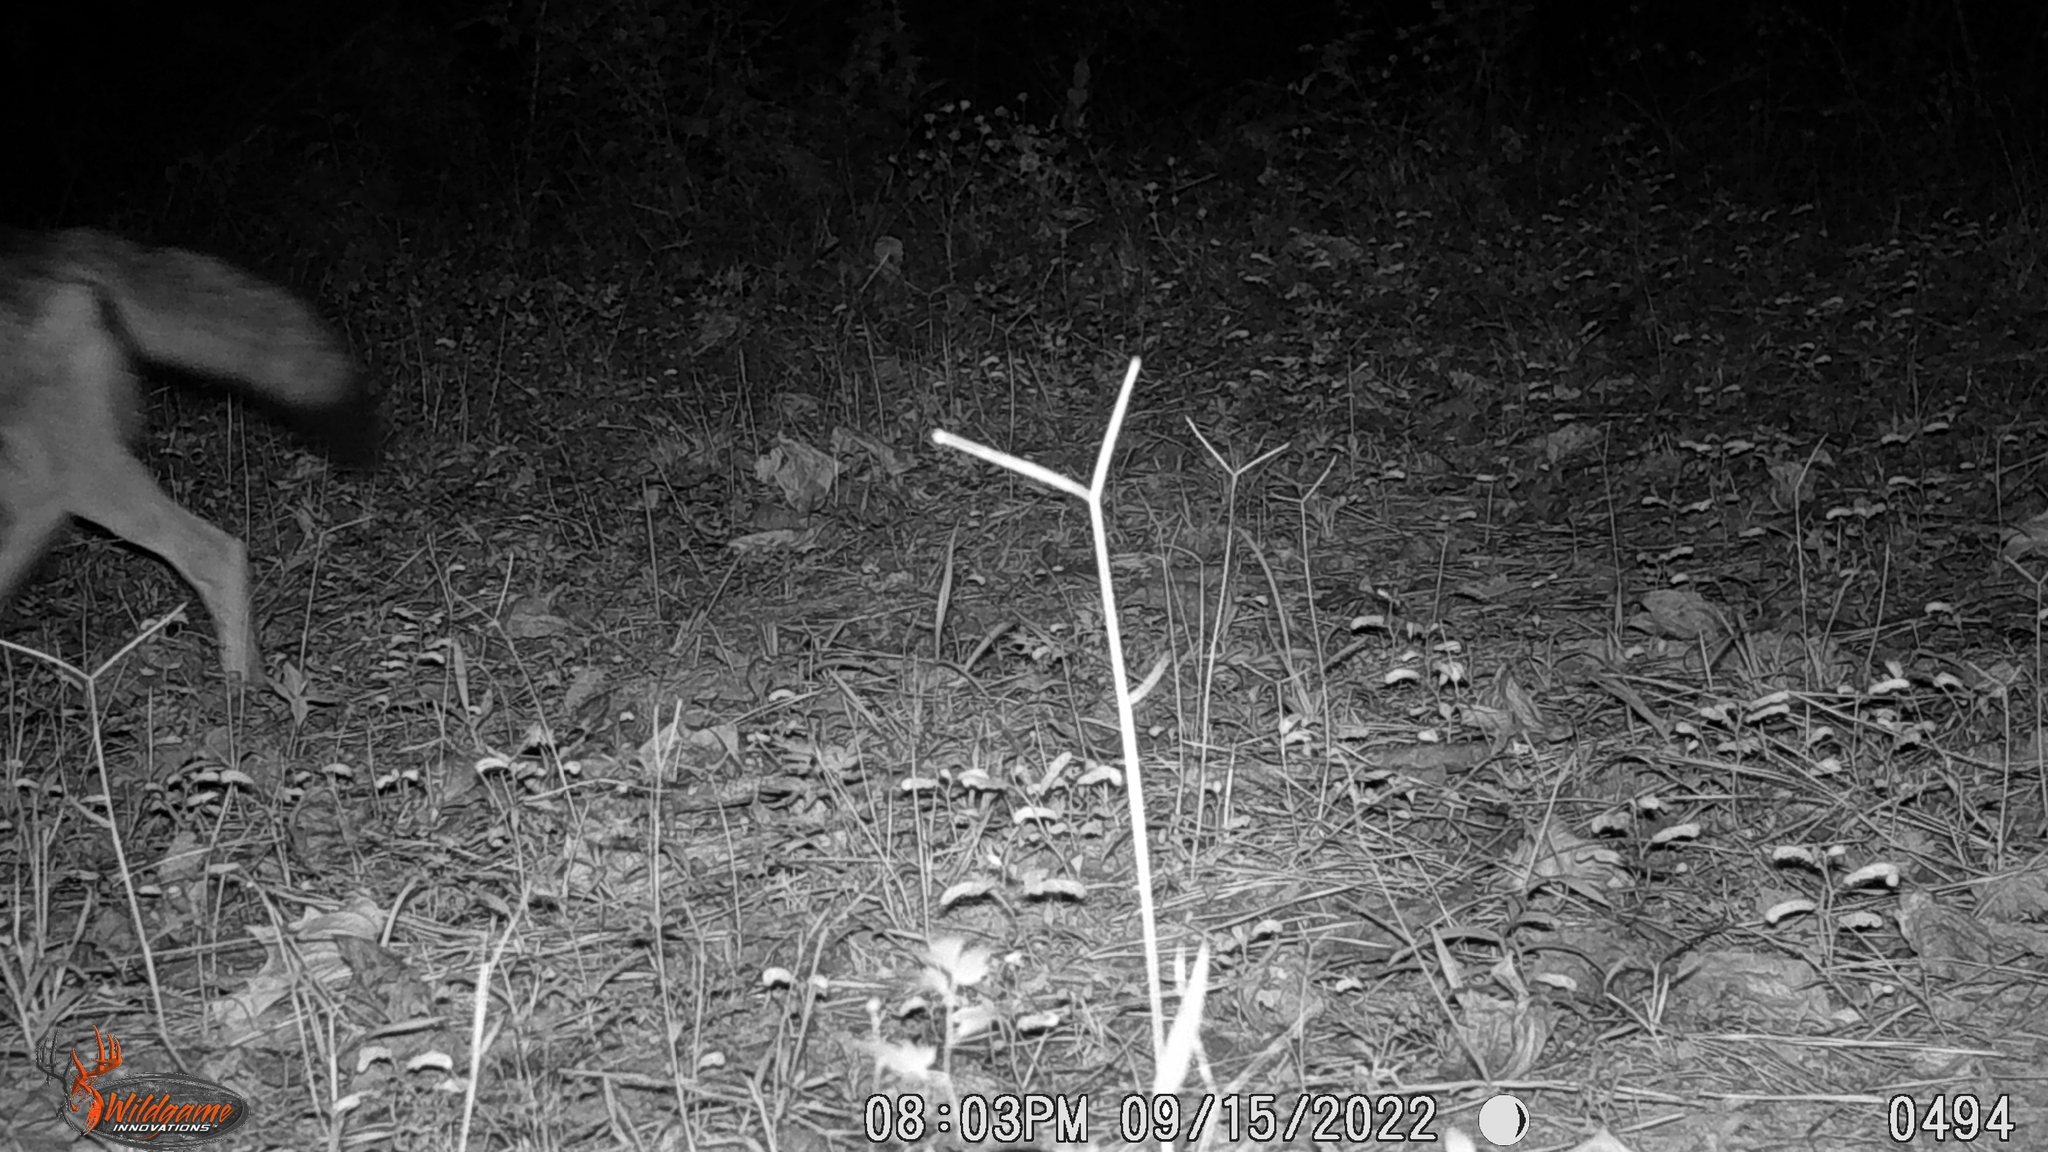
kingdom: Animalia
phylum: Chordata
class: Mammalia
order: Carnivora
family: Canidae
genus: Canis
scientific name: Canis latrans
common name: Coyote
